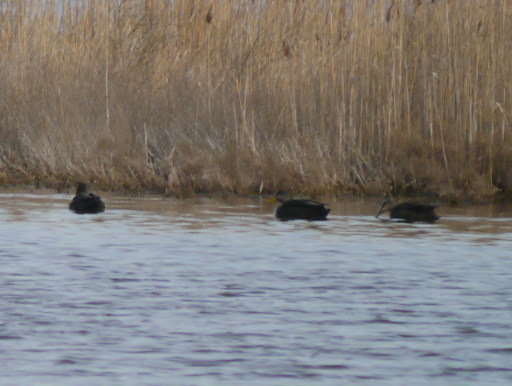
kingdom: Animalia
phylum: Chordata
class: Aves
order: Anseriformes
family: Anatidae
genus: Anas
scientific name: Anas rubripes
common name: American black duck
